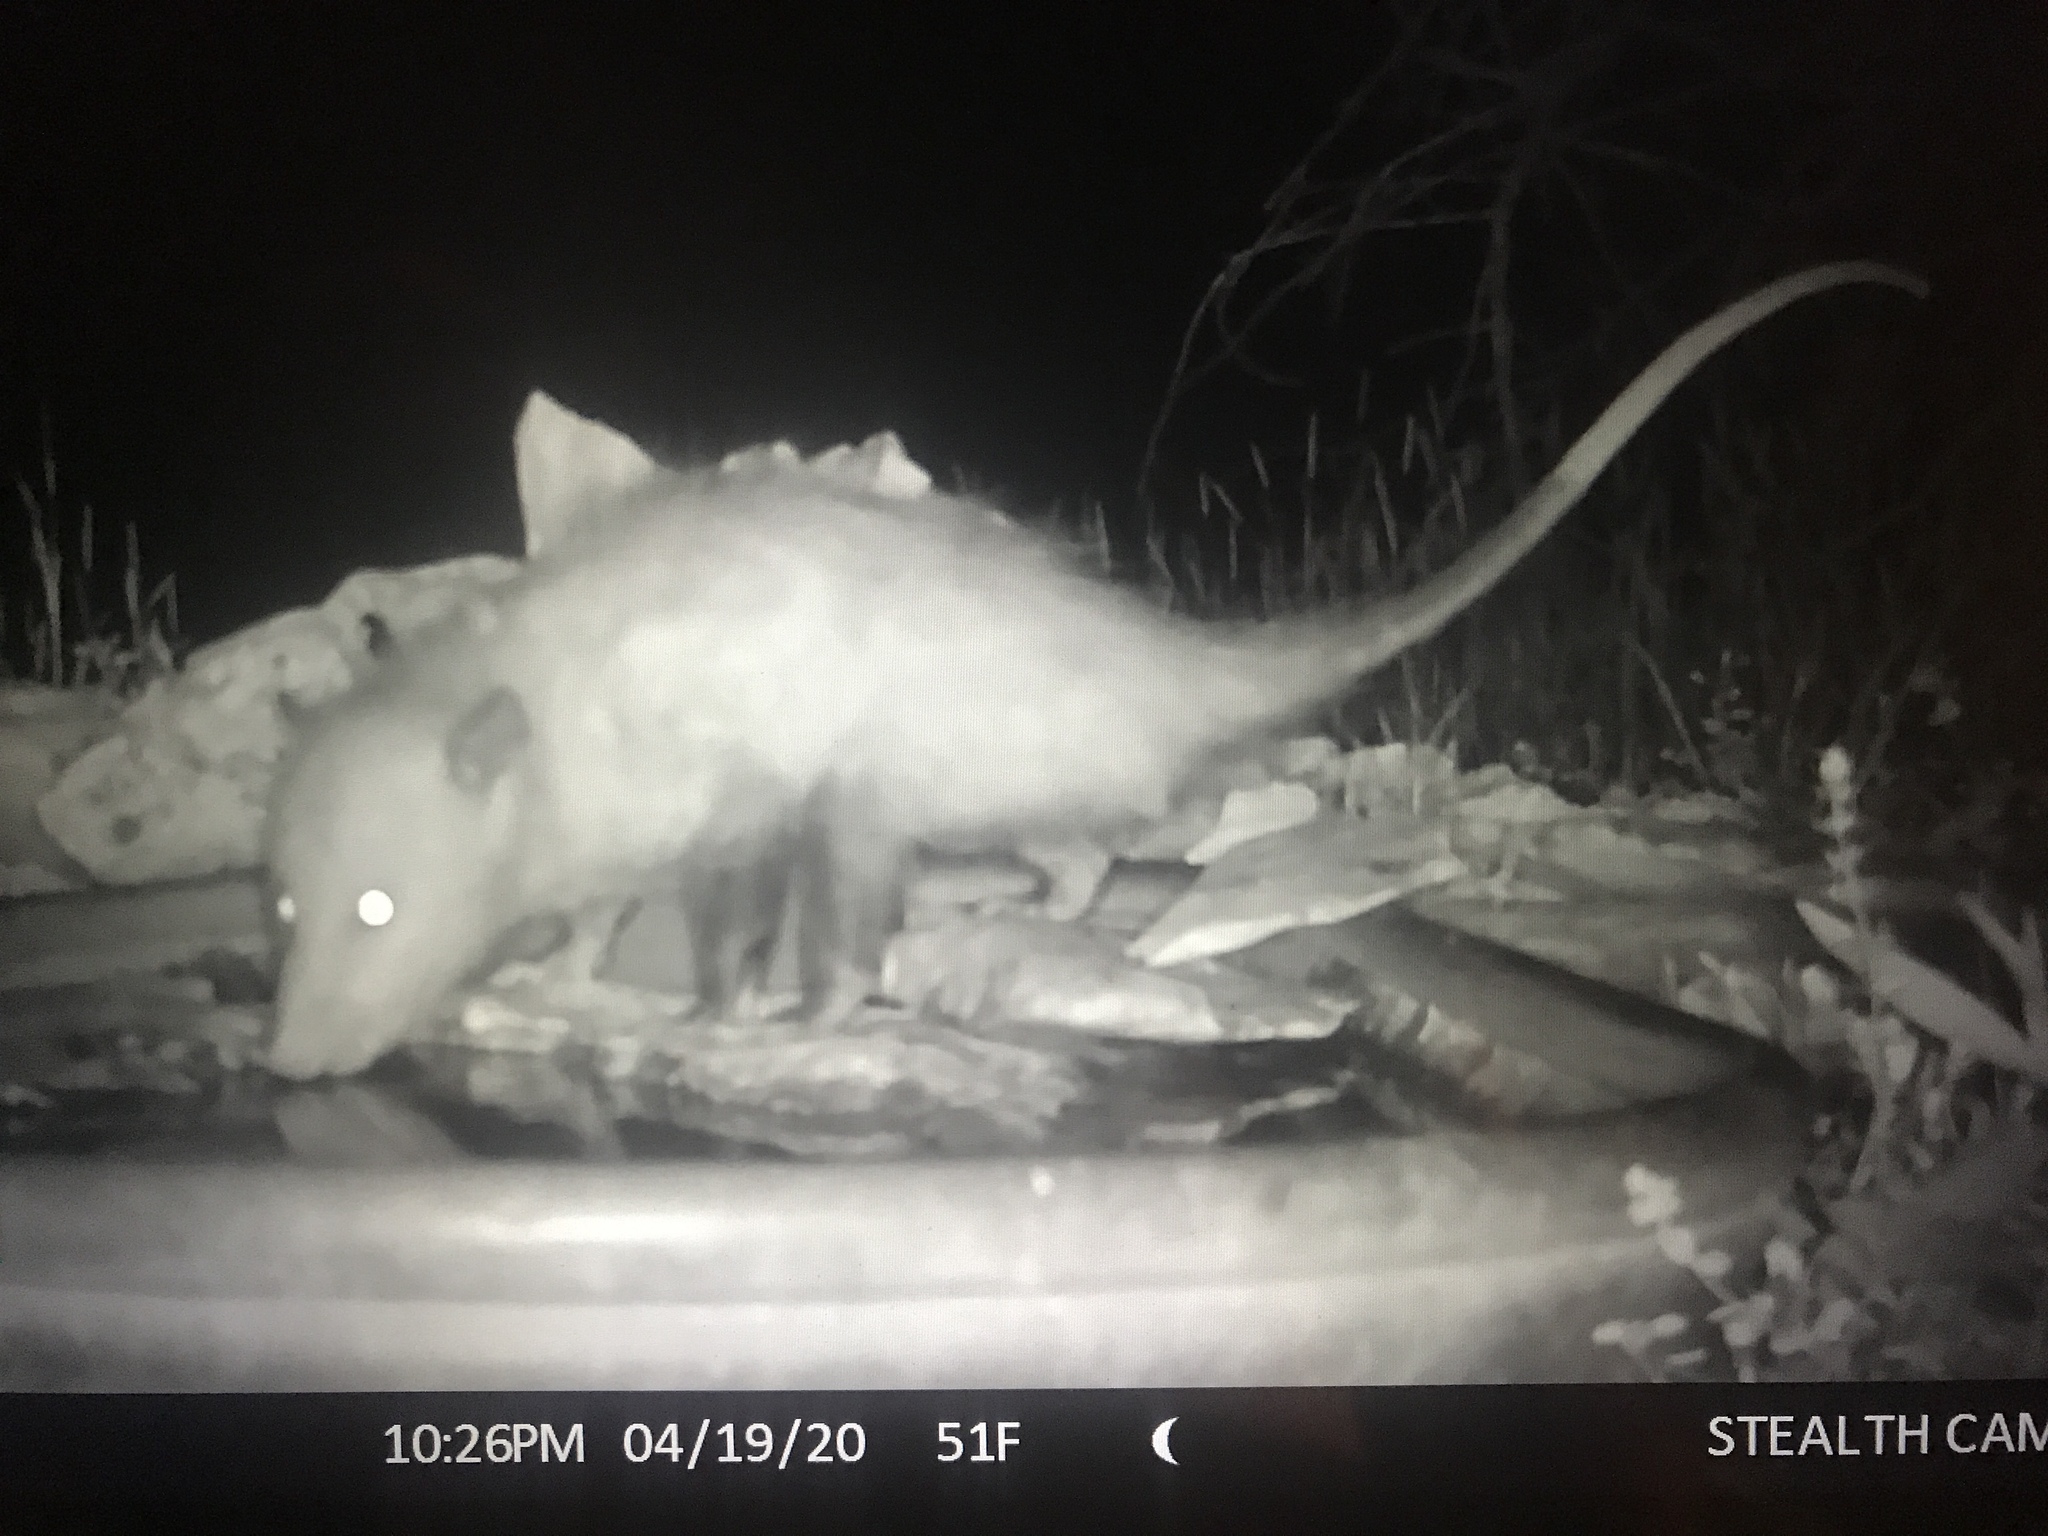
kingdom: Animalia
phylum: Chordata
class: Mammalia
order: Didelphimorphia
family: Didelphidae
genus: Didelphis
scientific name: Didelphis virginiana
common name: Virginia opossum
